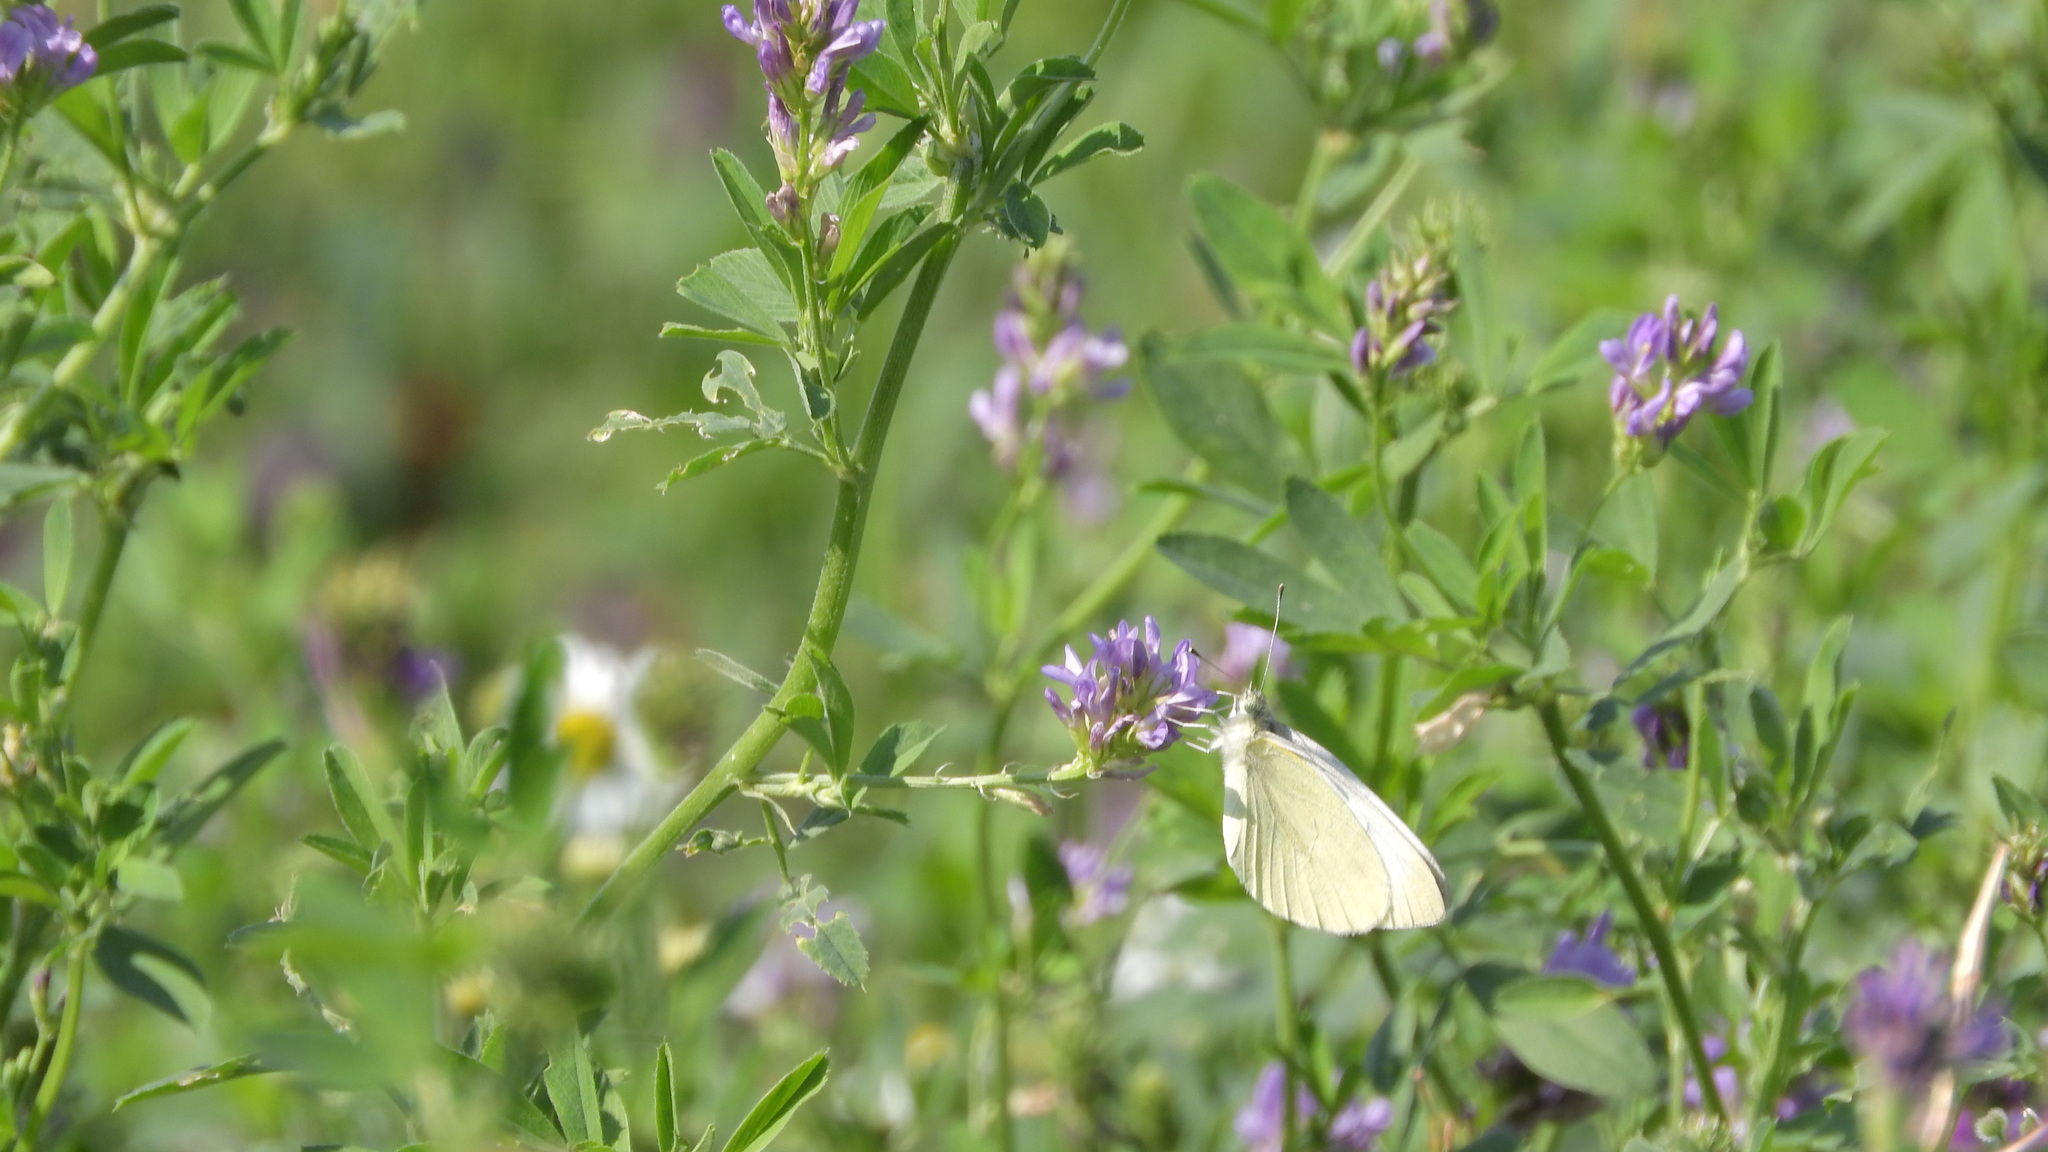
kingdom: Animalia
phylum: Arthropoda
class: Insecta
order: Lepidoptera
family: Pieridae
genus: Pieris
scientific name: Pieris rapae
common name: Small white
